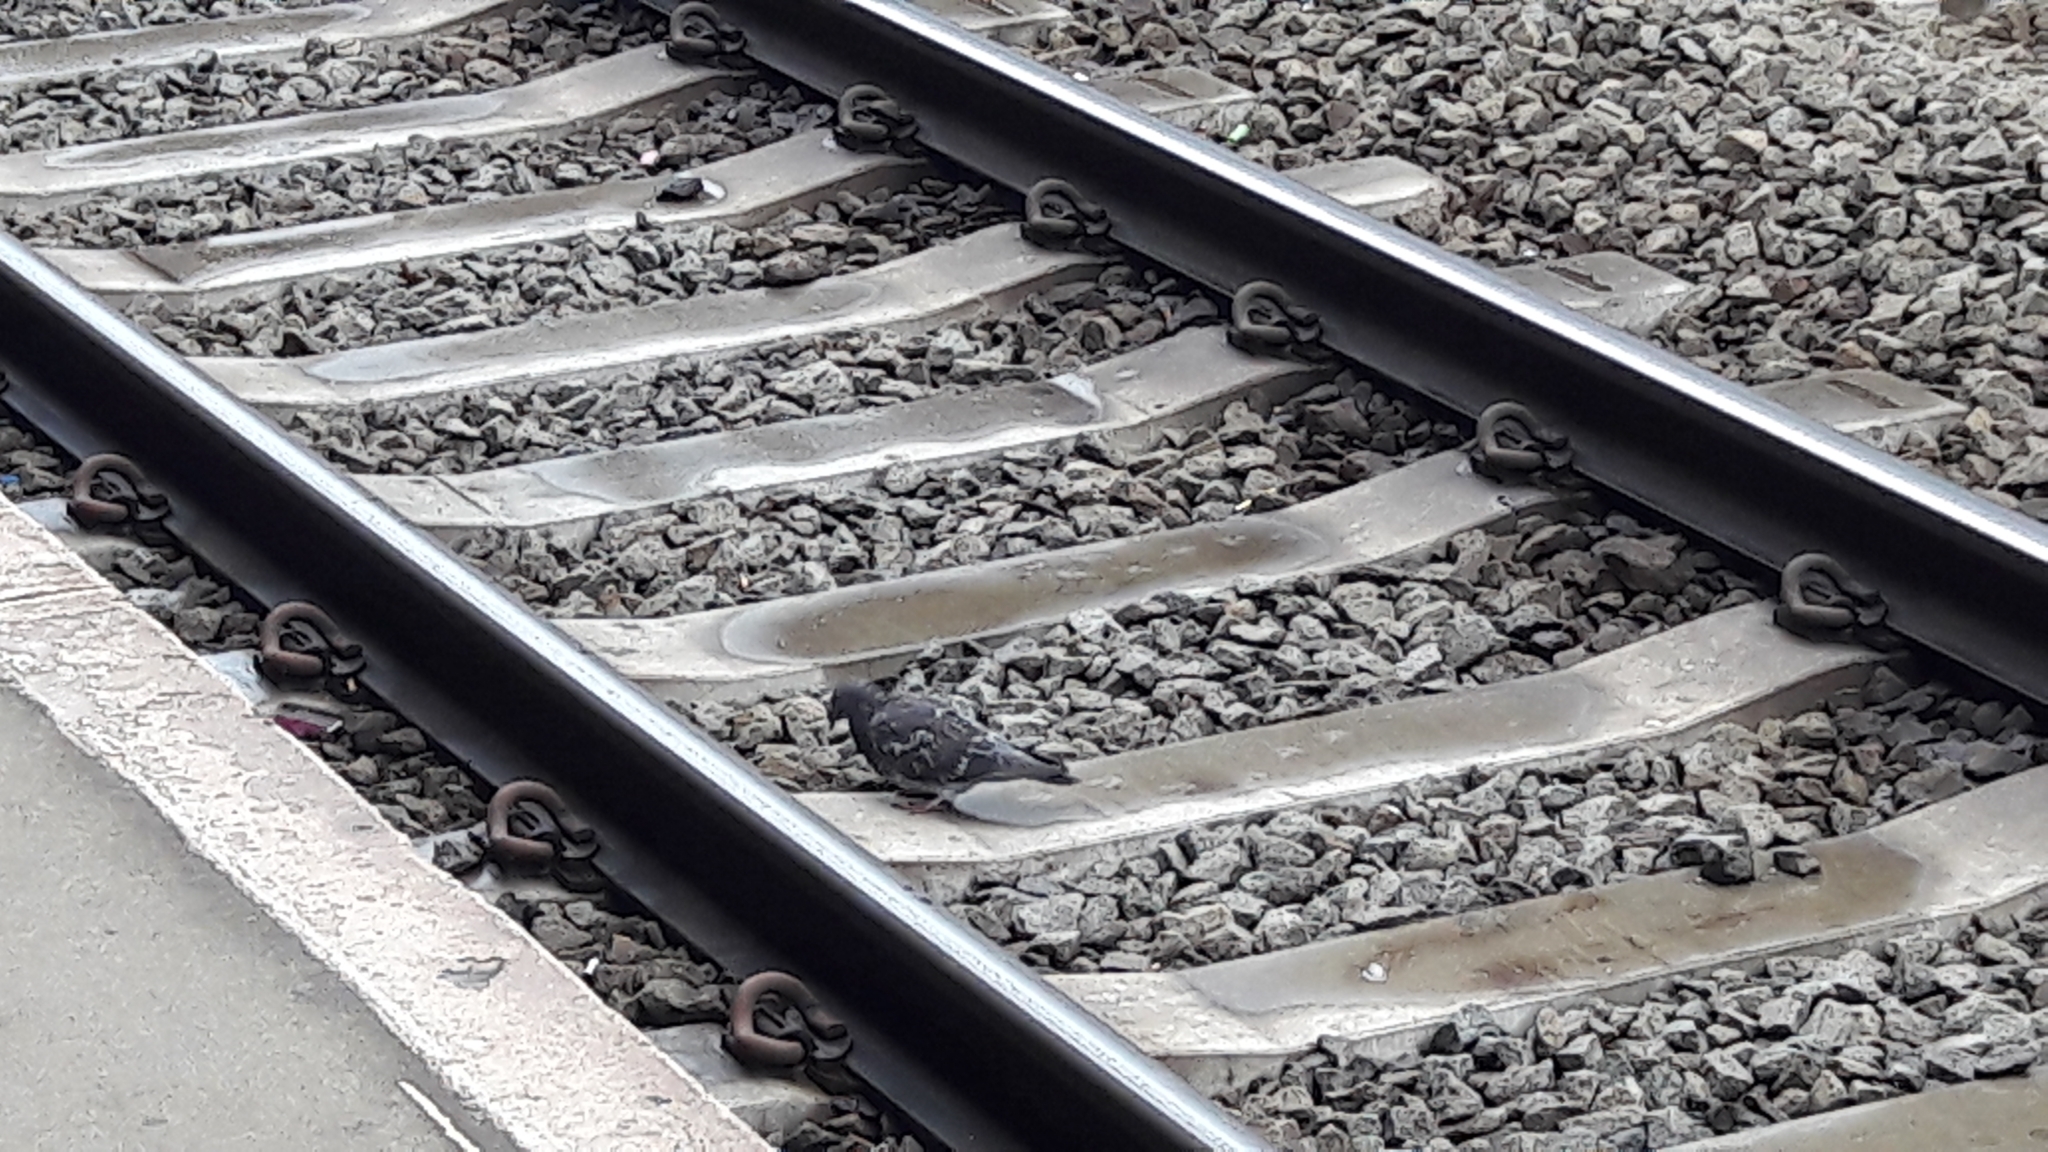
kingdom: Animalia
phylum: Chordata
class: Aves
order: Columbiformes
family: Columbidae
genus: Columba
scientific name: Columba livia
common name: Rock pigeon
